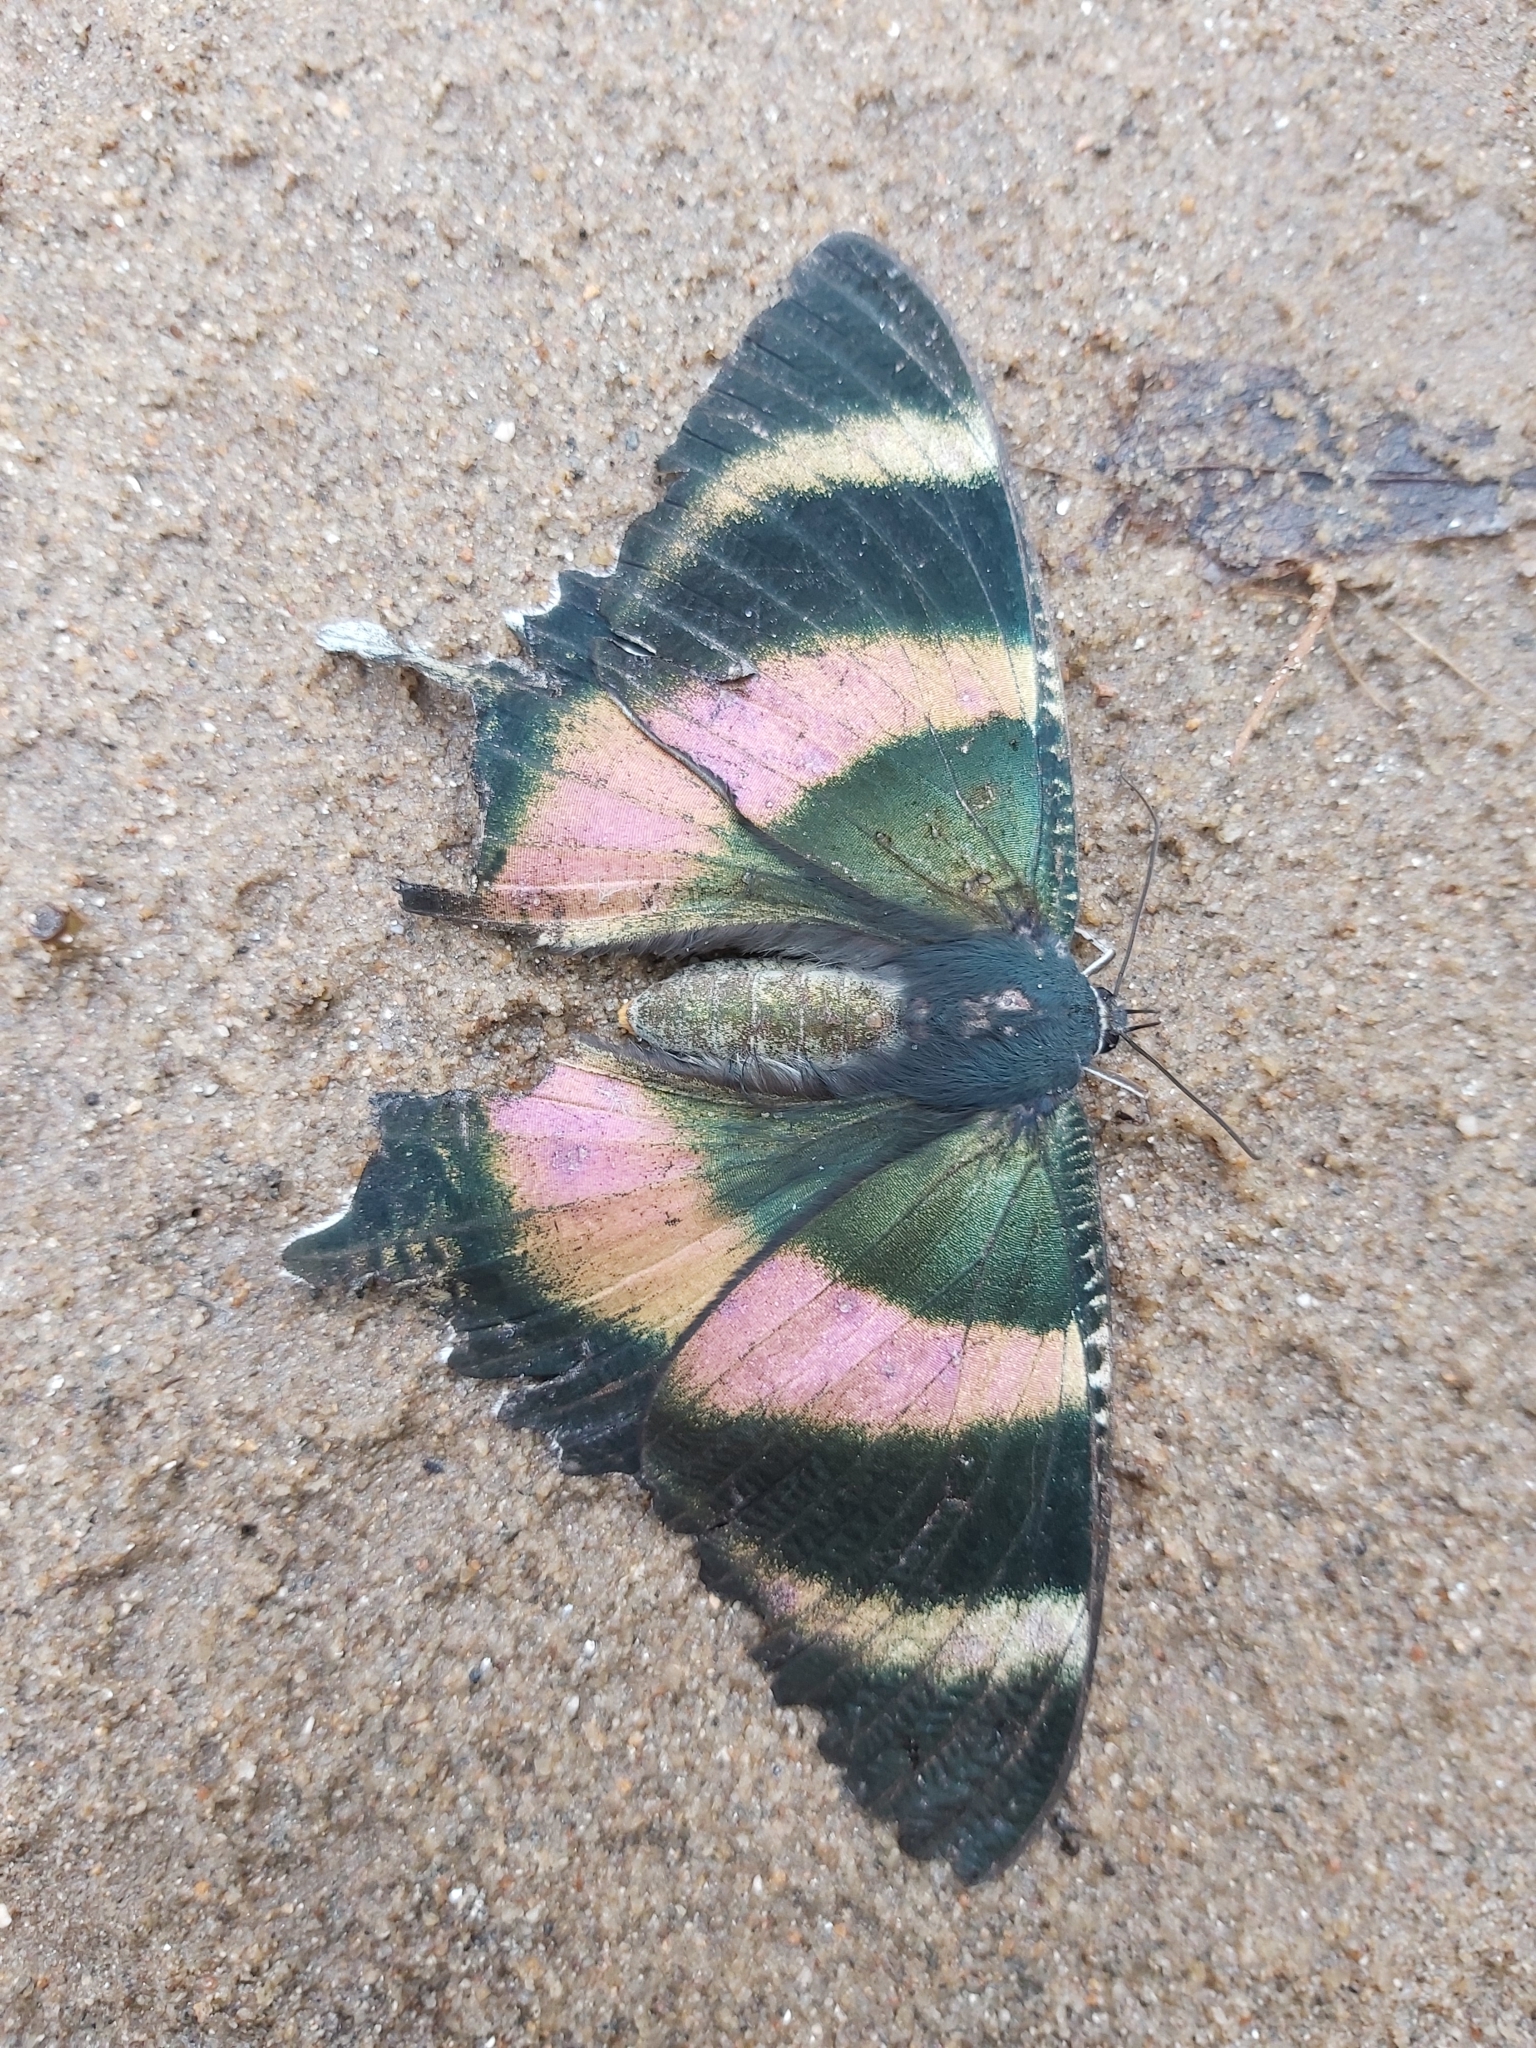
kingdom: Animalia
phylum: Arthropoda
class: Insecta
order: Lepidoptera
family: Uraniidae
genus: Alcides
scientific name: Alcides metaurus
